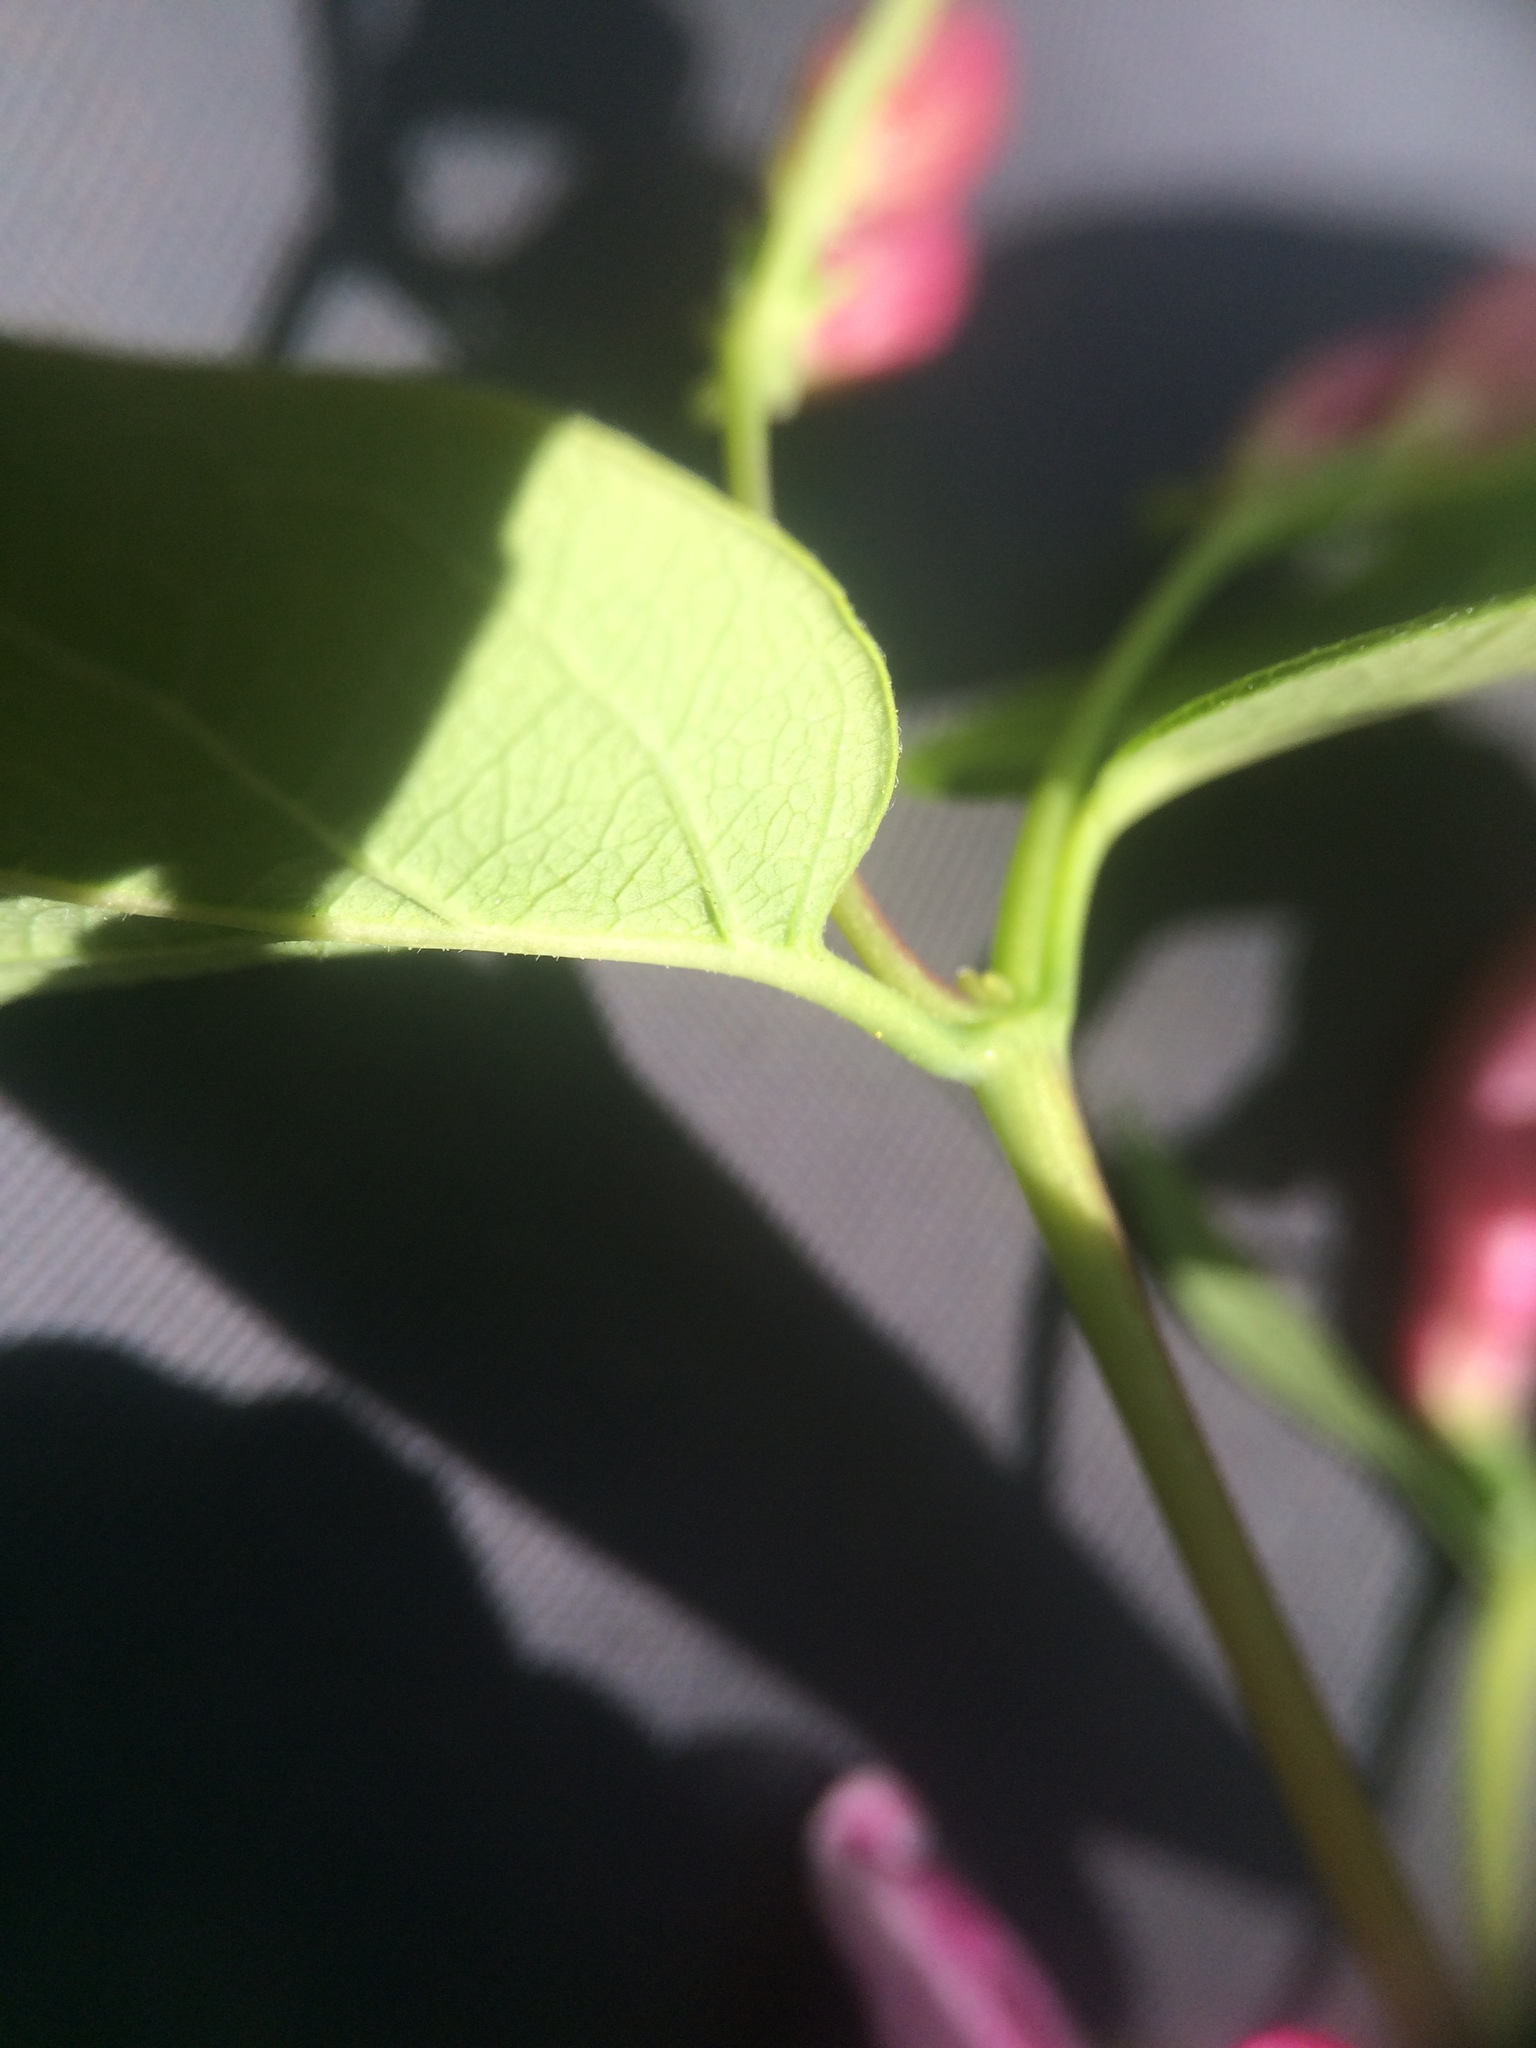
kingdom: Plantae
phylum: Tracheophyta
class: Magnoliopsida
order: Dipsacales
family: Caprifoliaceae
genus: Lonicera
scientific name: Lonicera tatarica
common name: Tatarian honeysuckle
